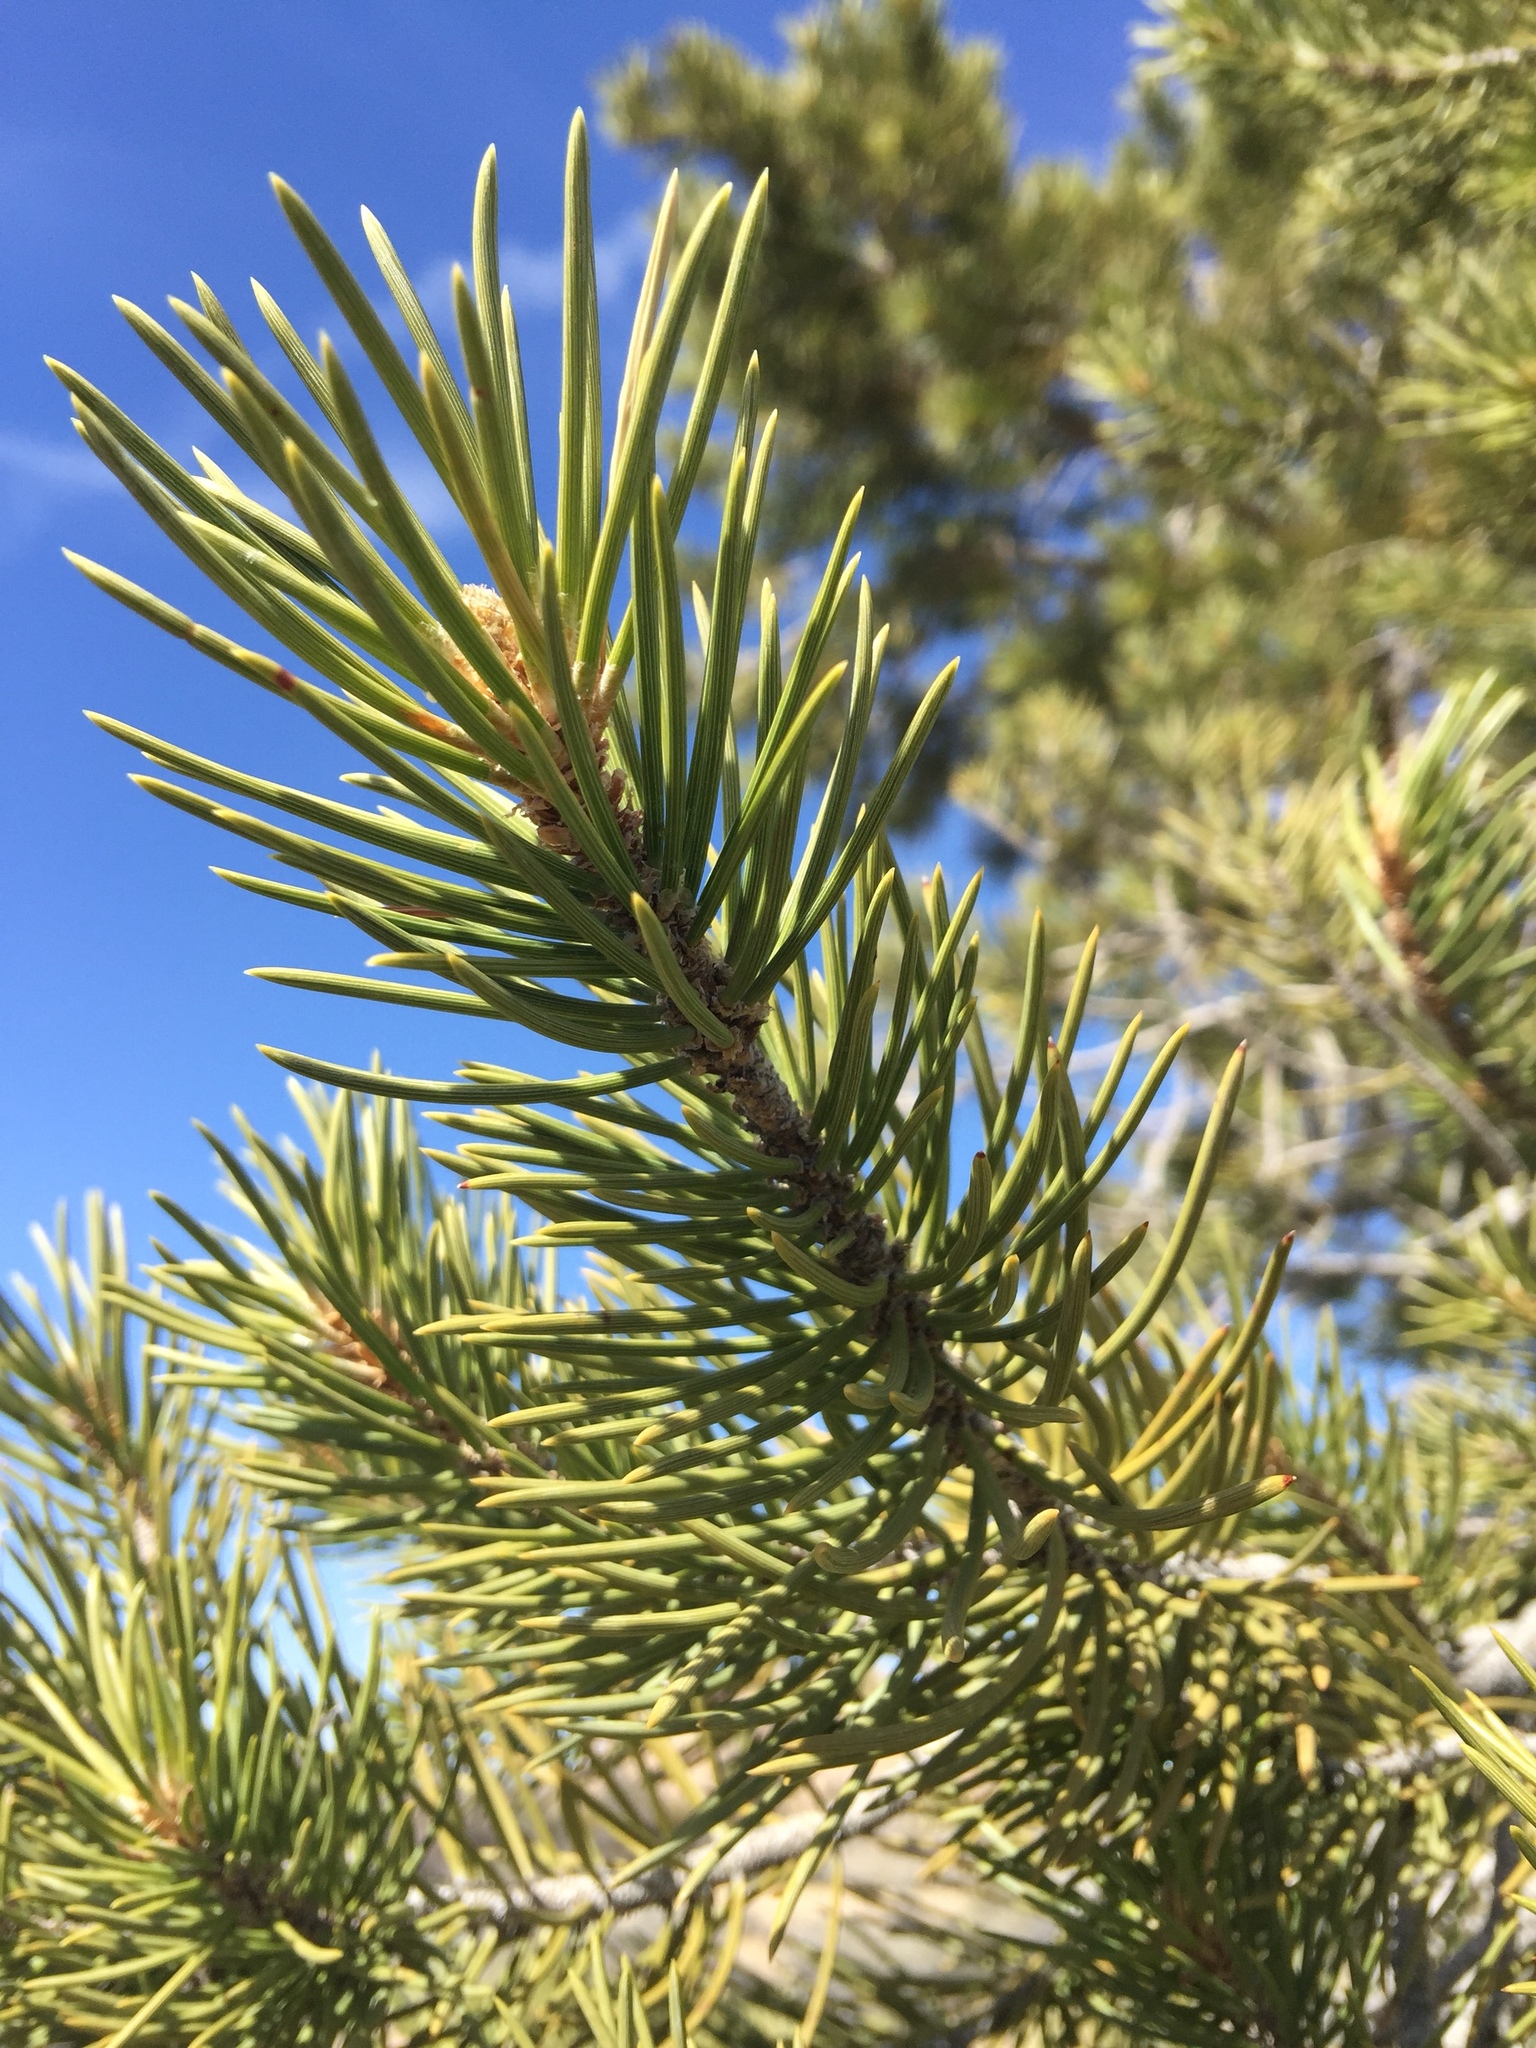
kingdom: Plantae
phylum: Tracheophyta
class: Pinopsida
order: Pinales
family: Pinaceae
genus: Pinus
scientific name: Pinus monophylla
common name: One-leaved nut pine
